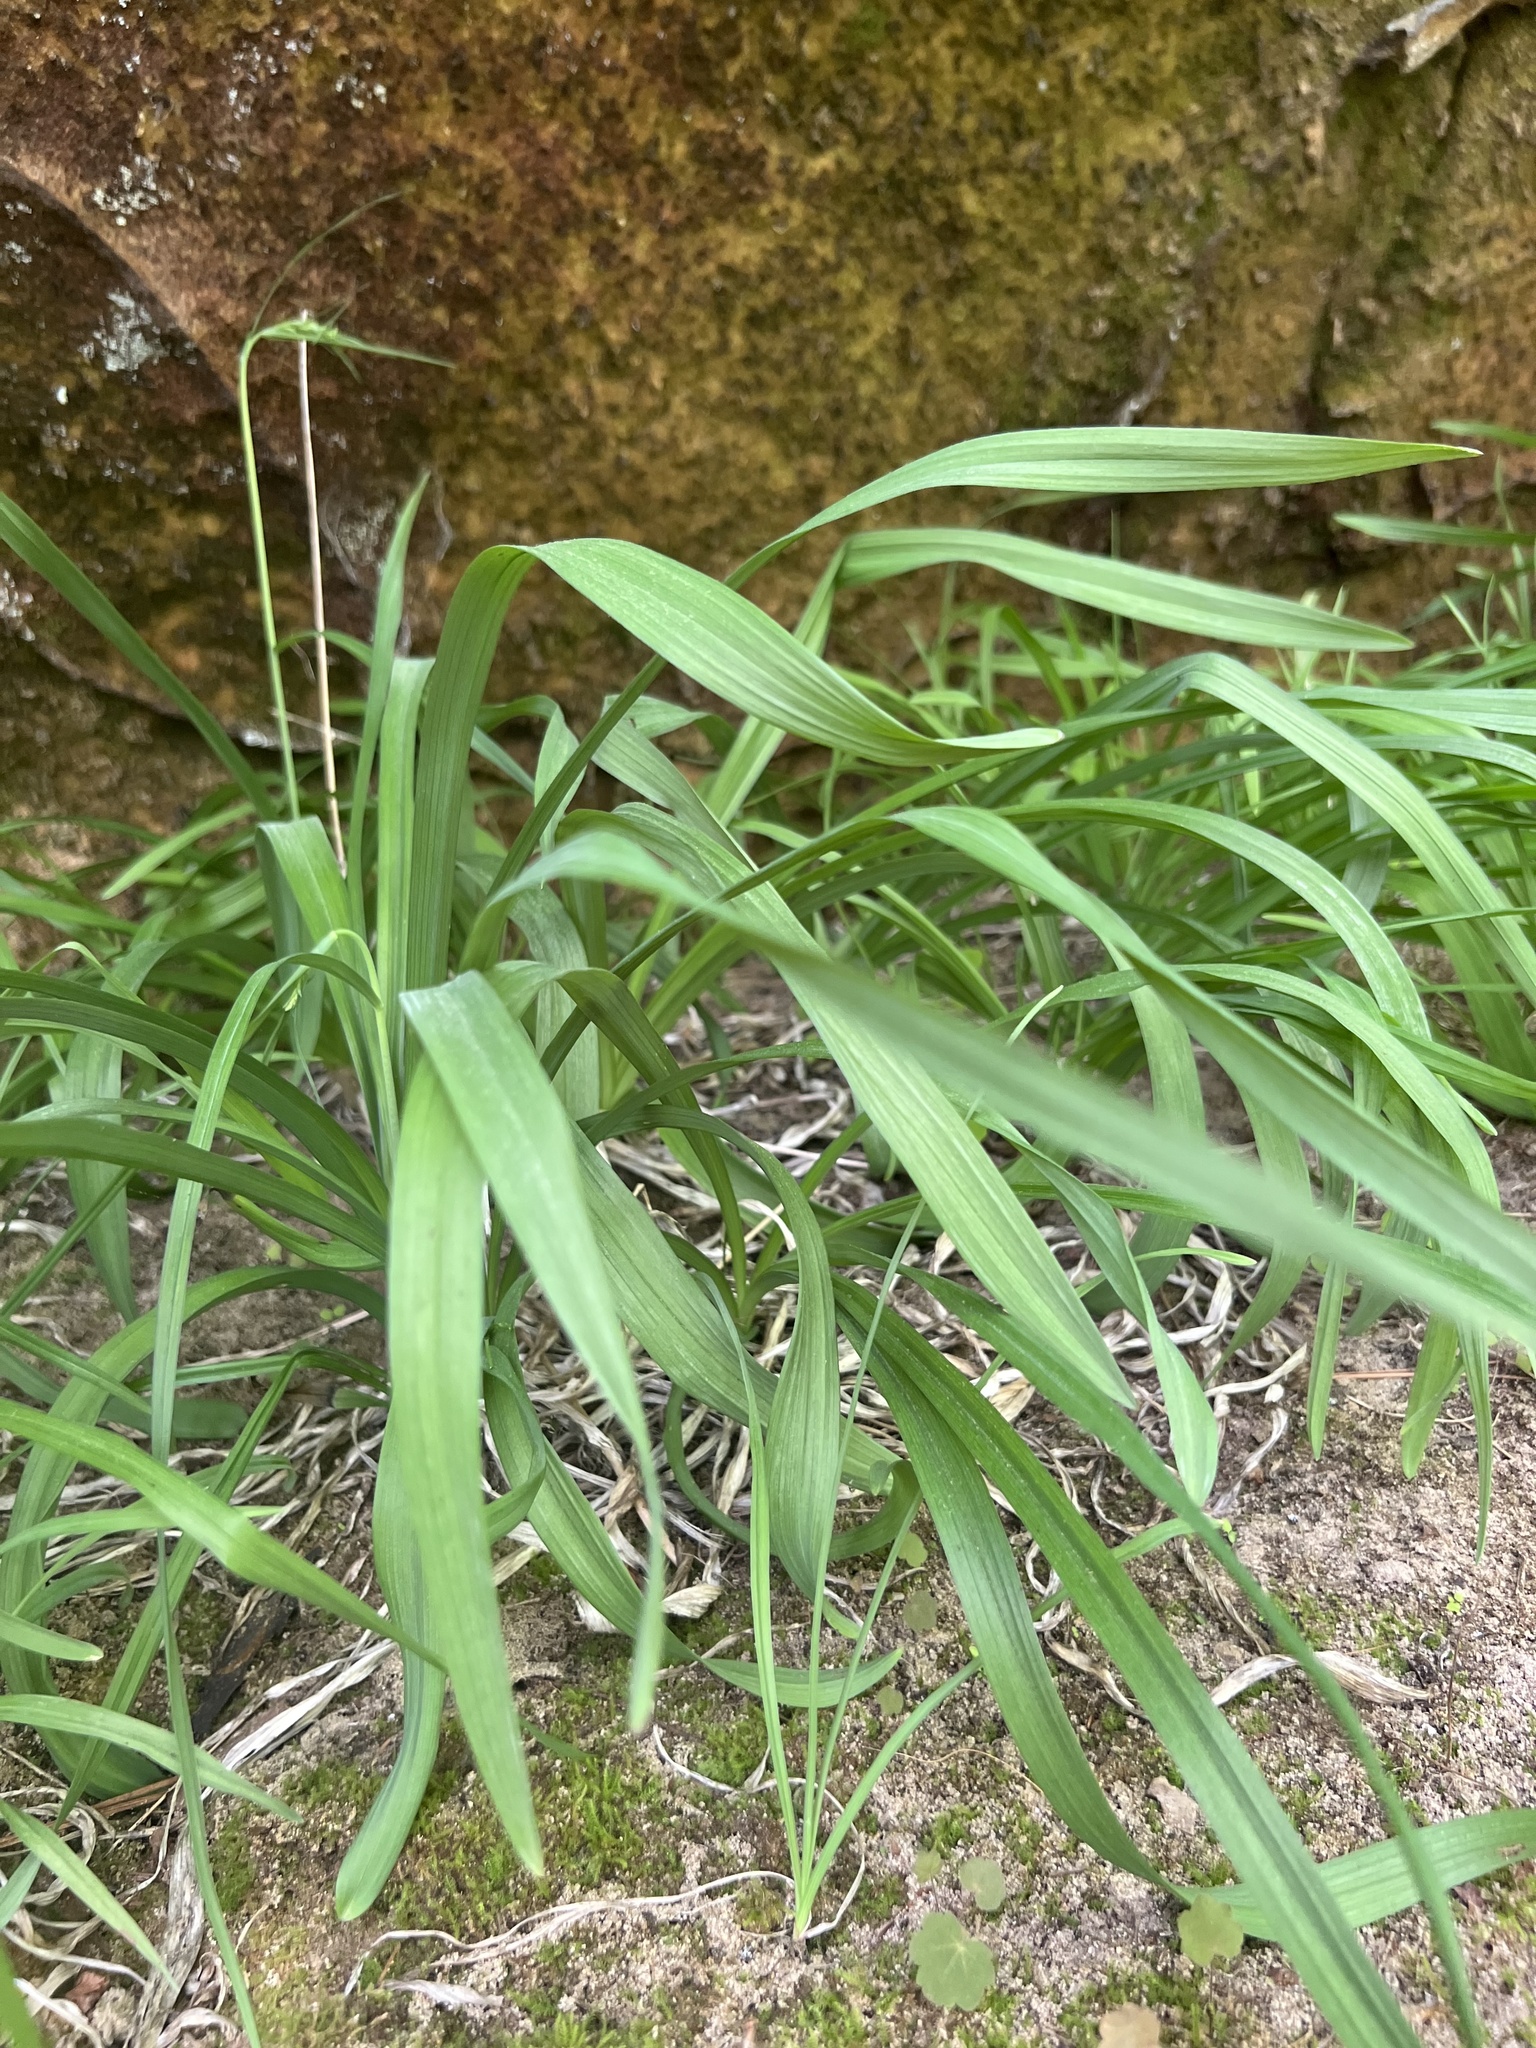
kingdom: Plantae
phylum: Tracheophyta
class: Liliopsida
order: Liliales
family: Melanthiaceae
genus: Stenanthium
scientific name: Stenanthium diffusum
